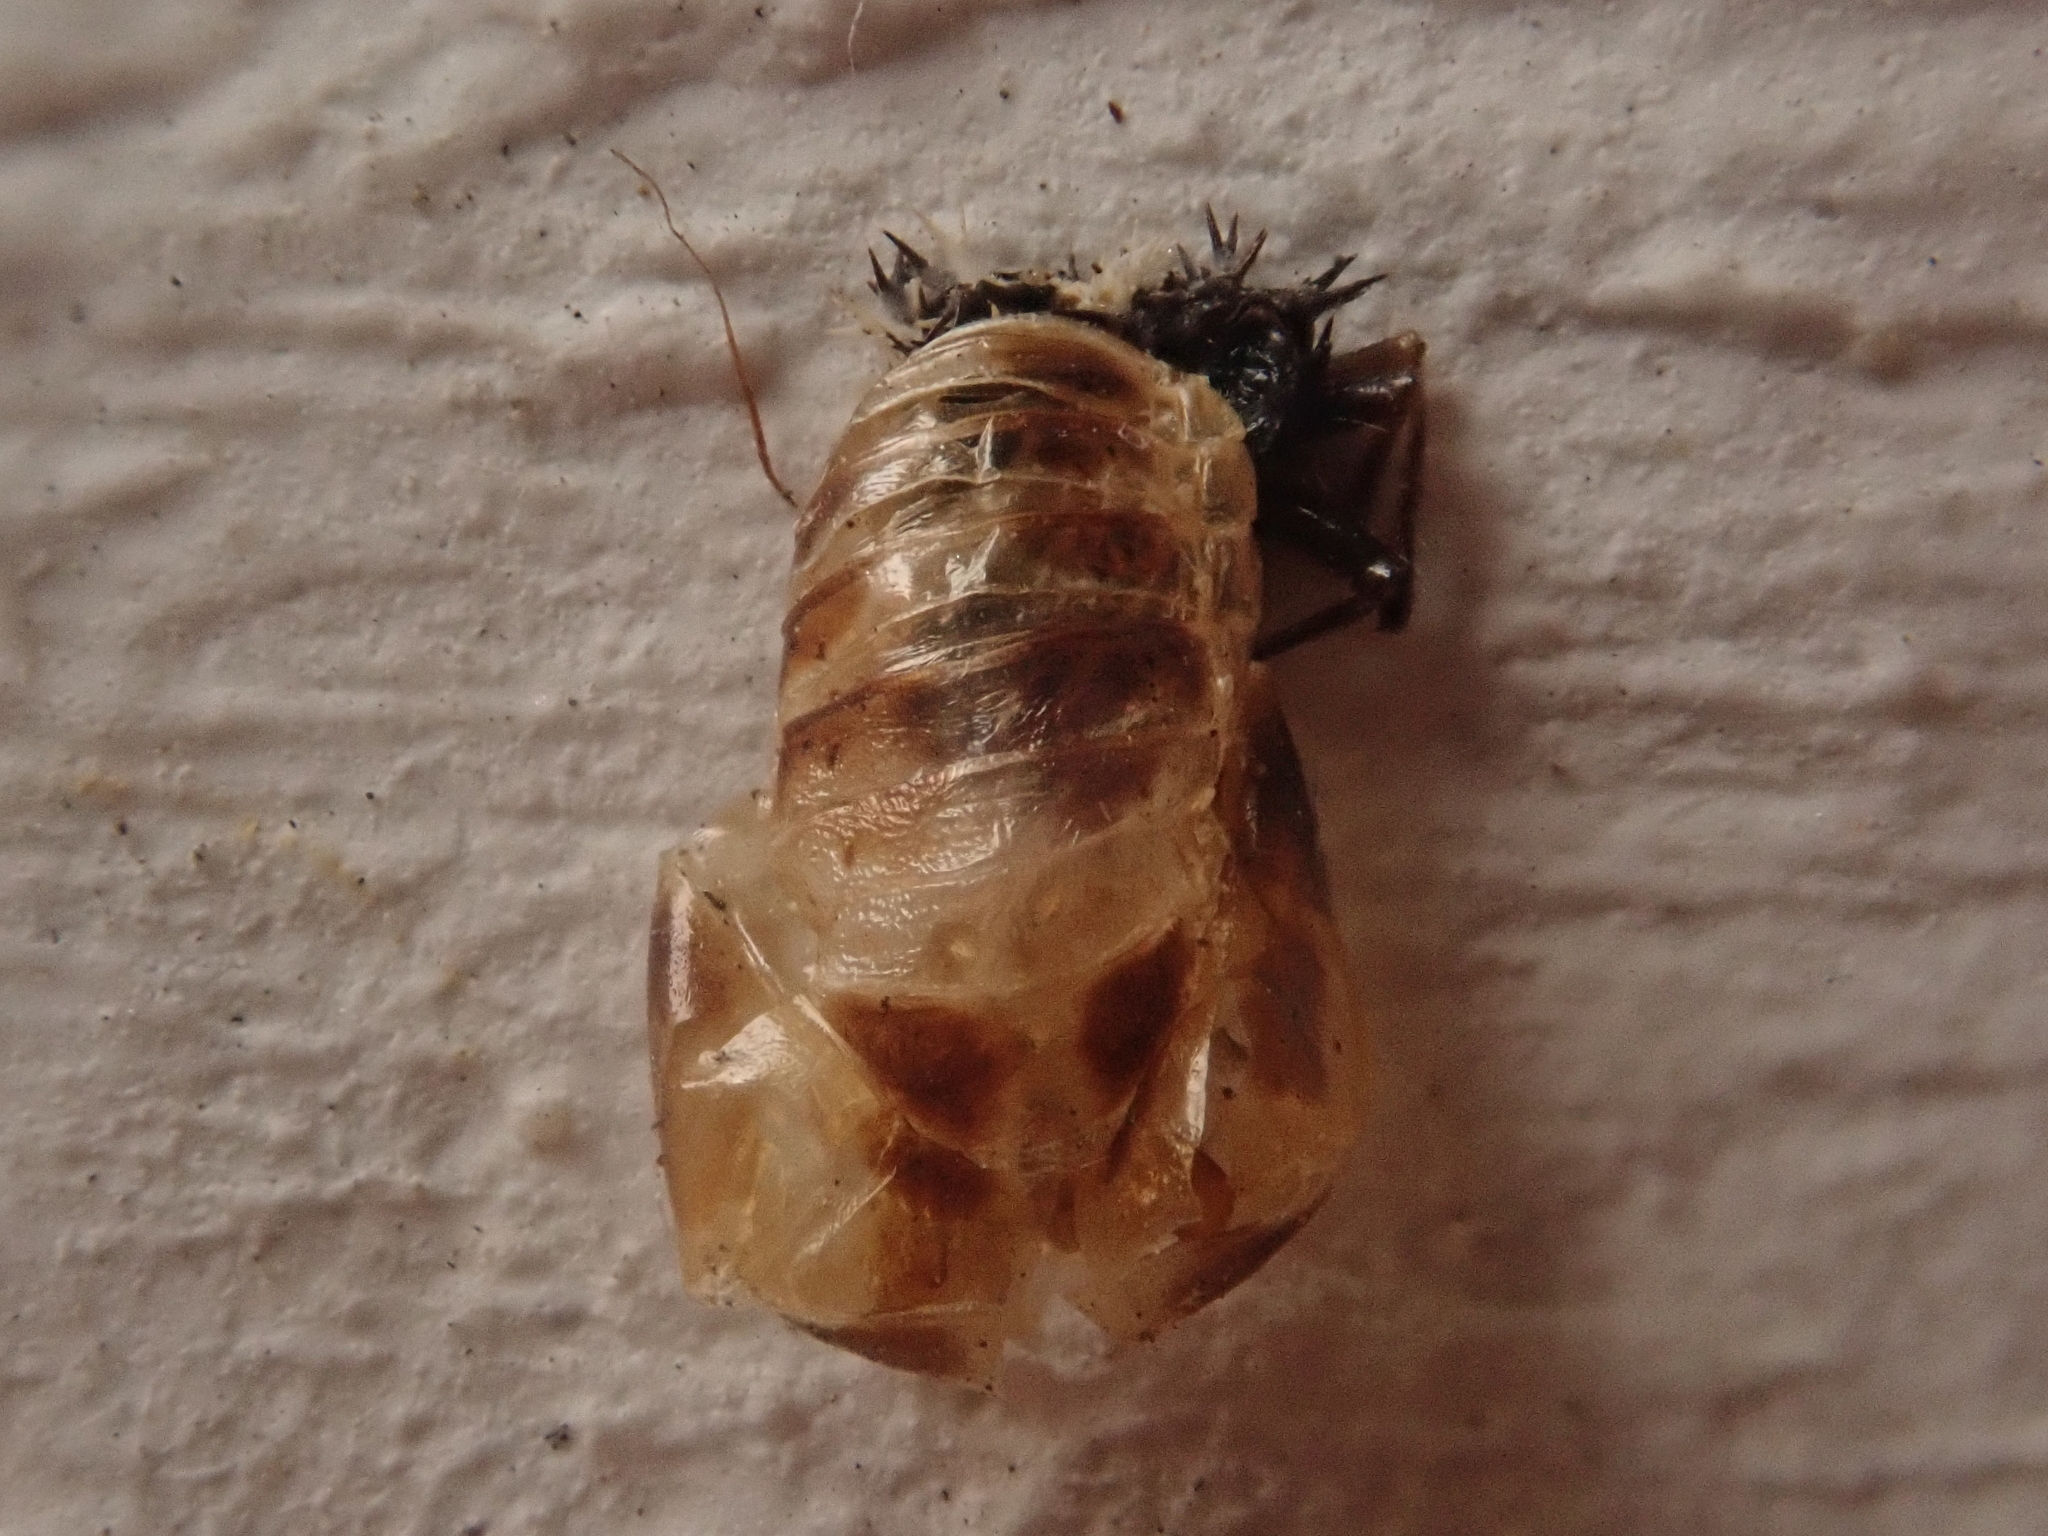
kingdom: Animalia
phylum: Arthropoda
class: Insecta
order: Coleoptera
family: Coccinellidae
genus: Harmonia
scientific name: Harmonia axyridis
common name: Harlequin ladybird
